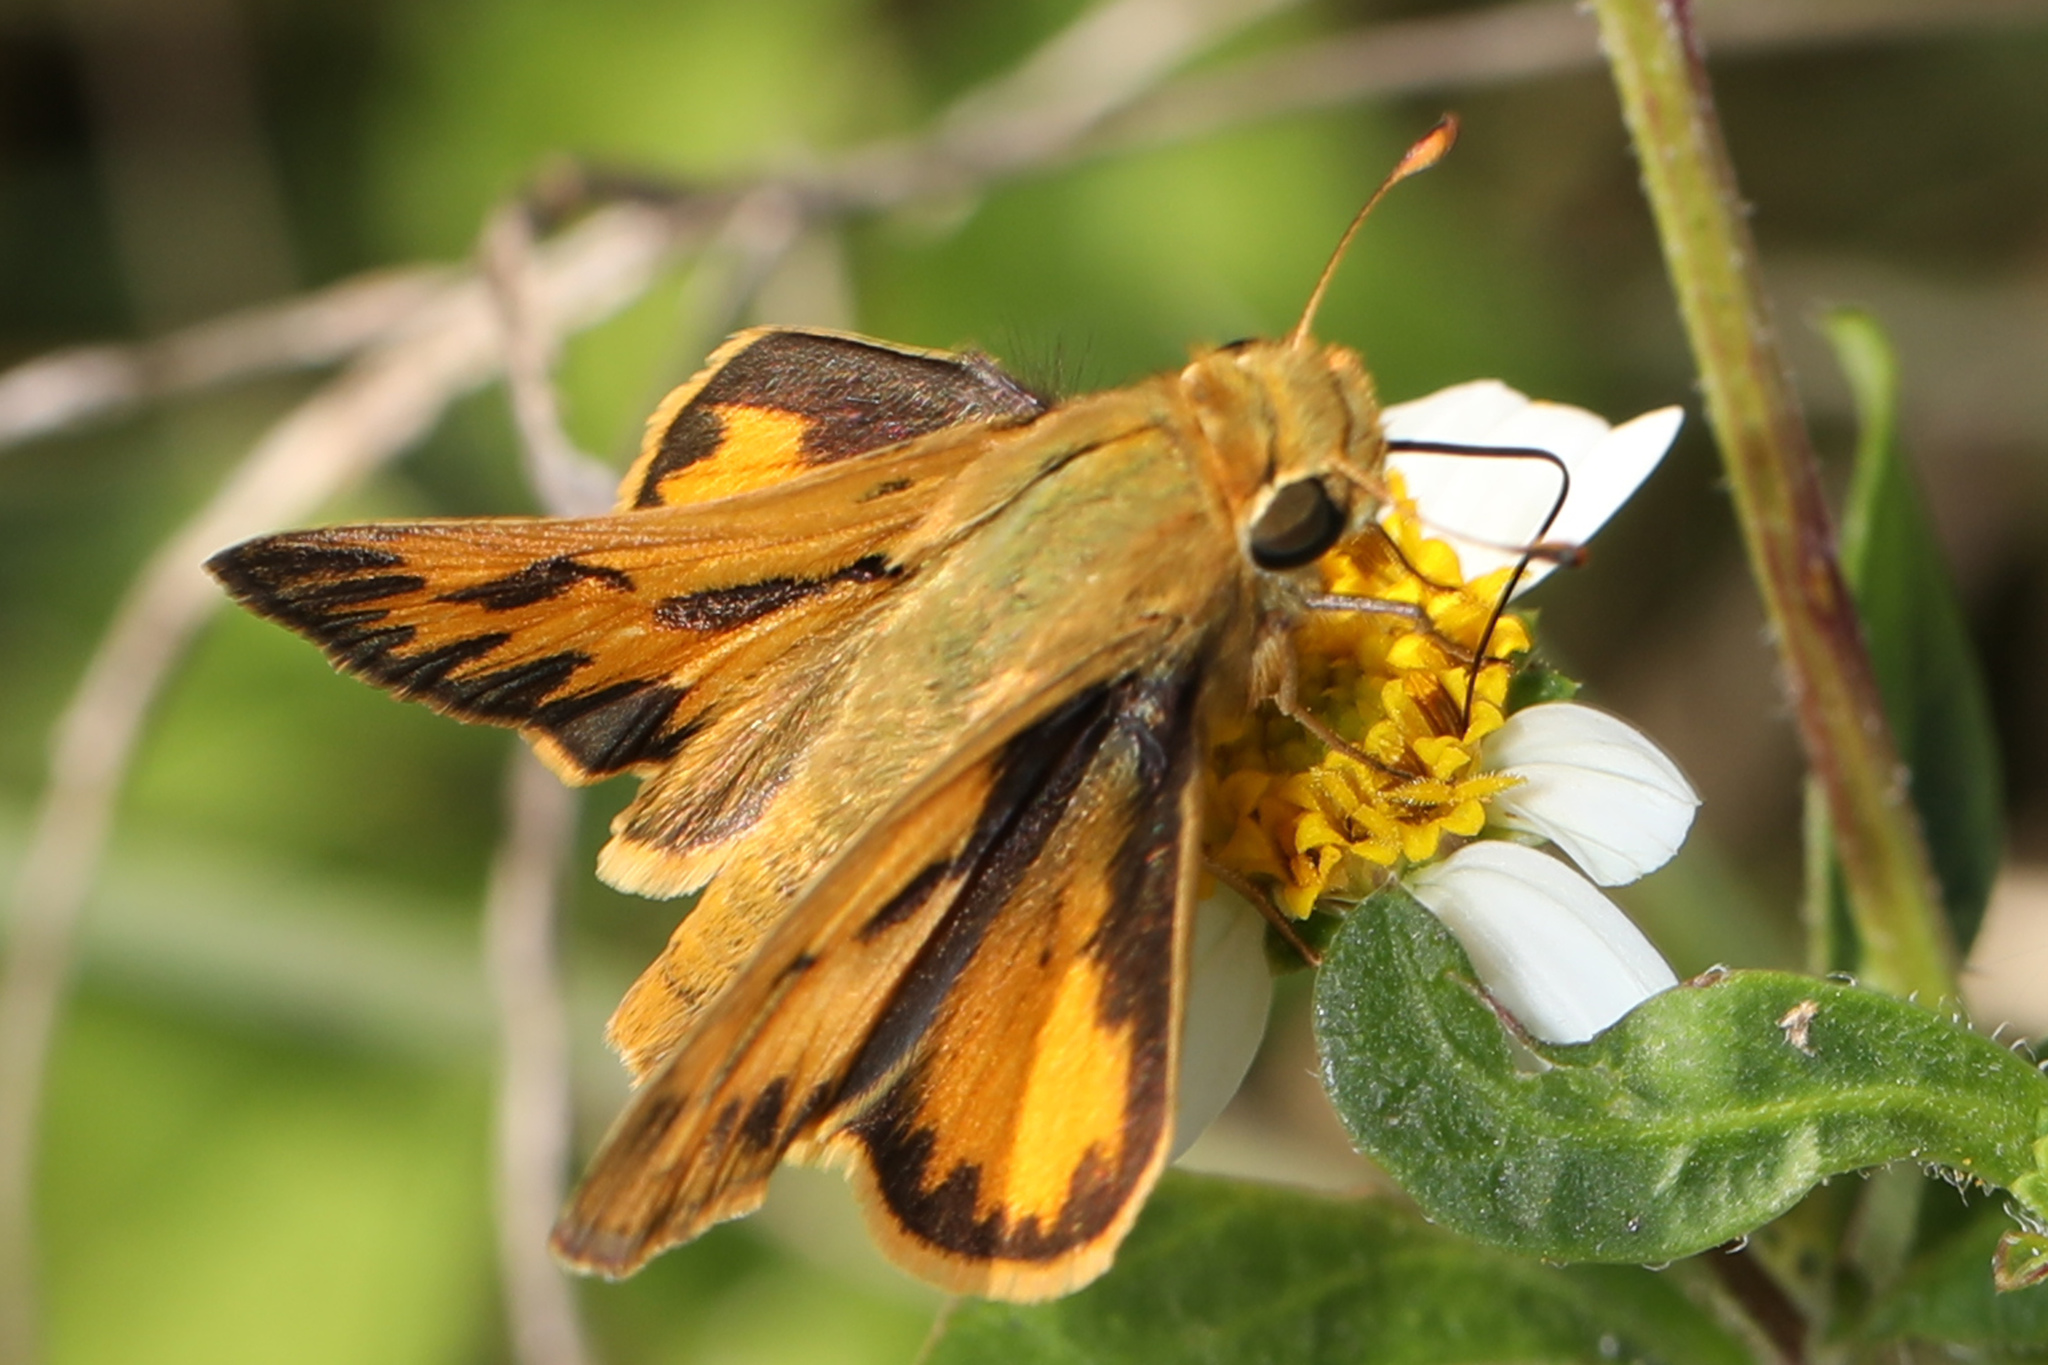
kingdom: Animalia
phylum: Arthropoda
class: Insecta
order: Lepidoptera
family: Hesperiidae
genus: Hylephila
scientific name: Hylephila phyleus
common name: Fiery skipper
